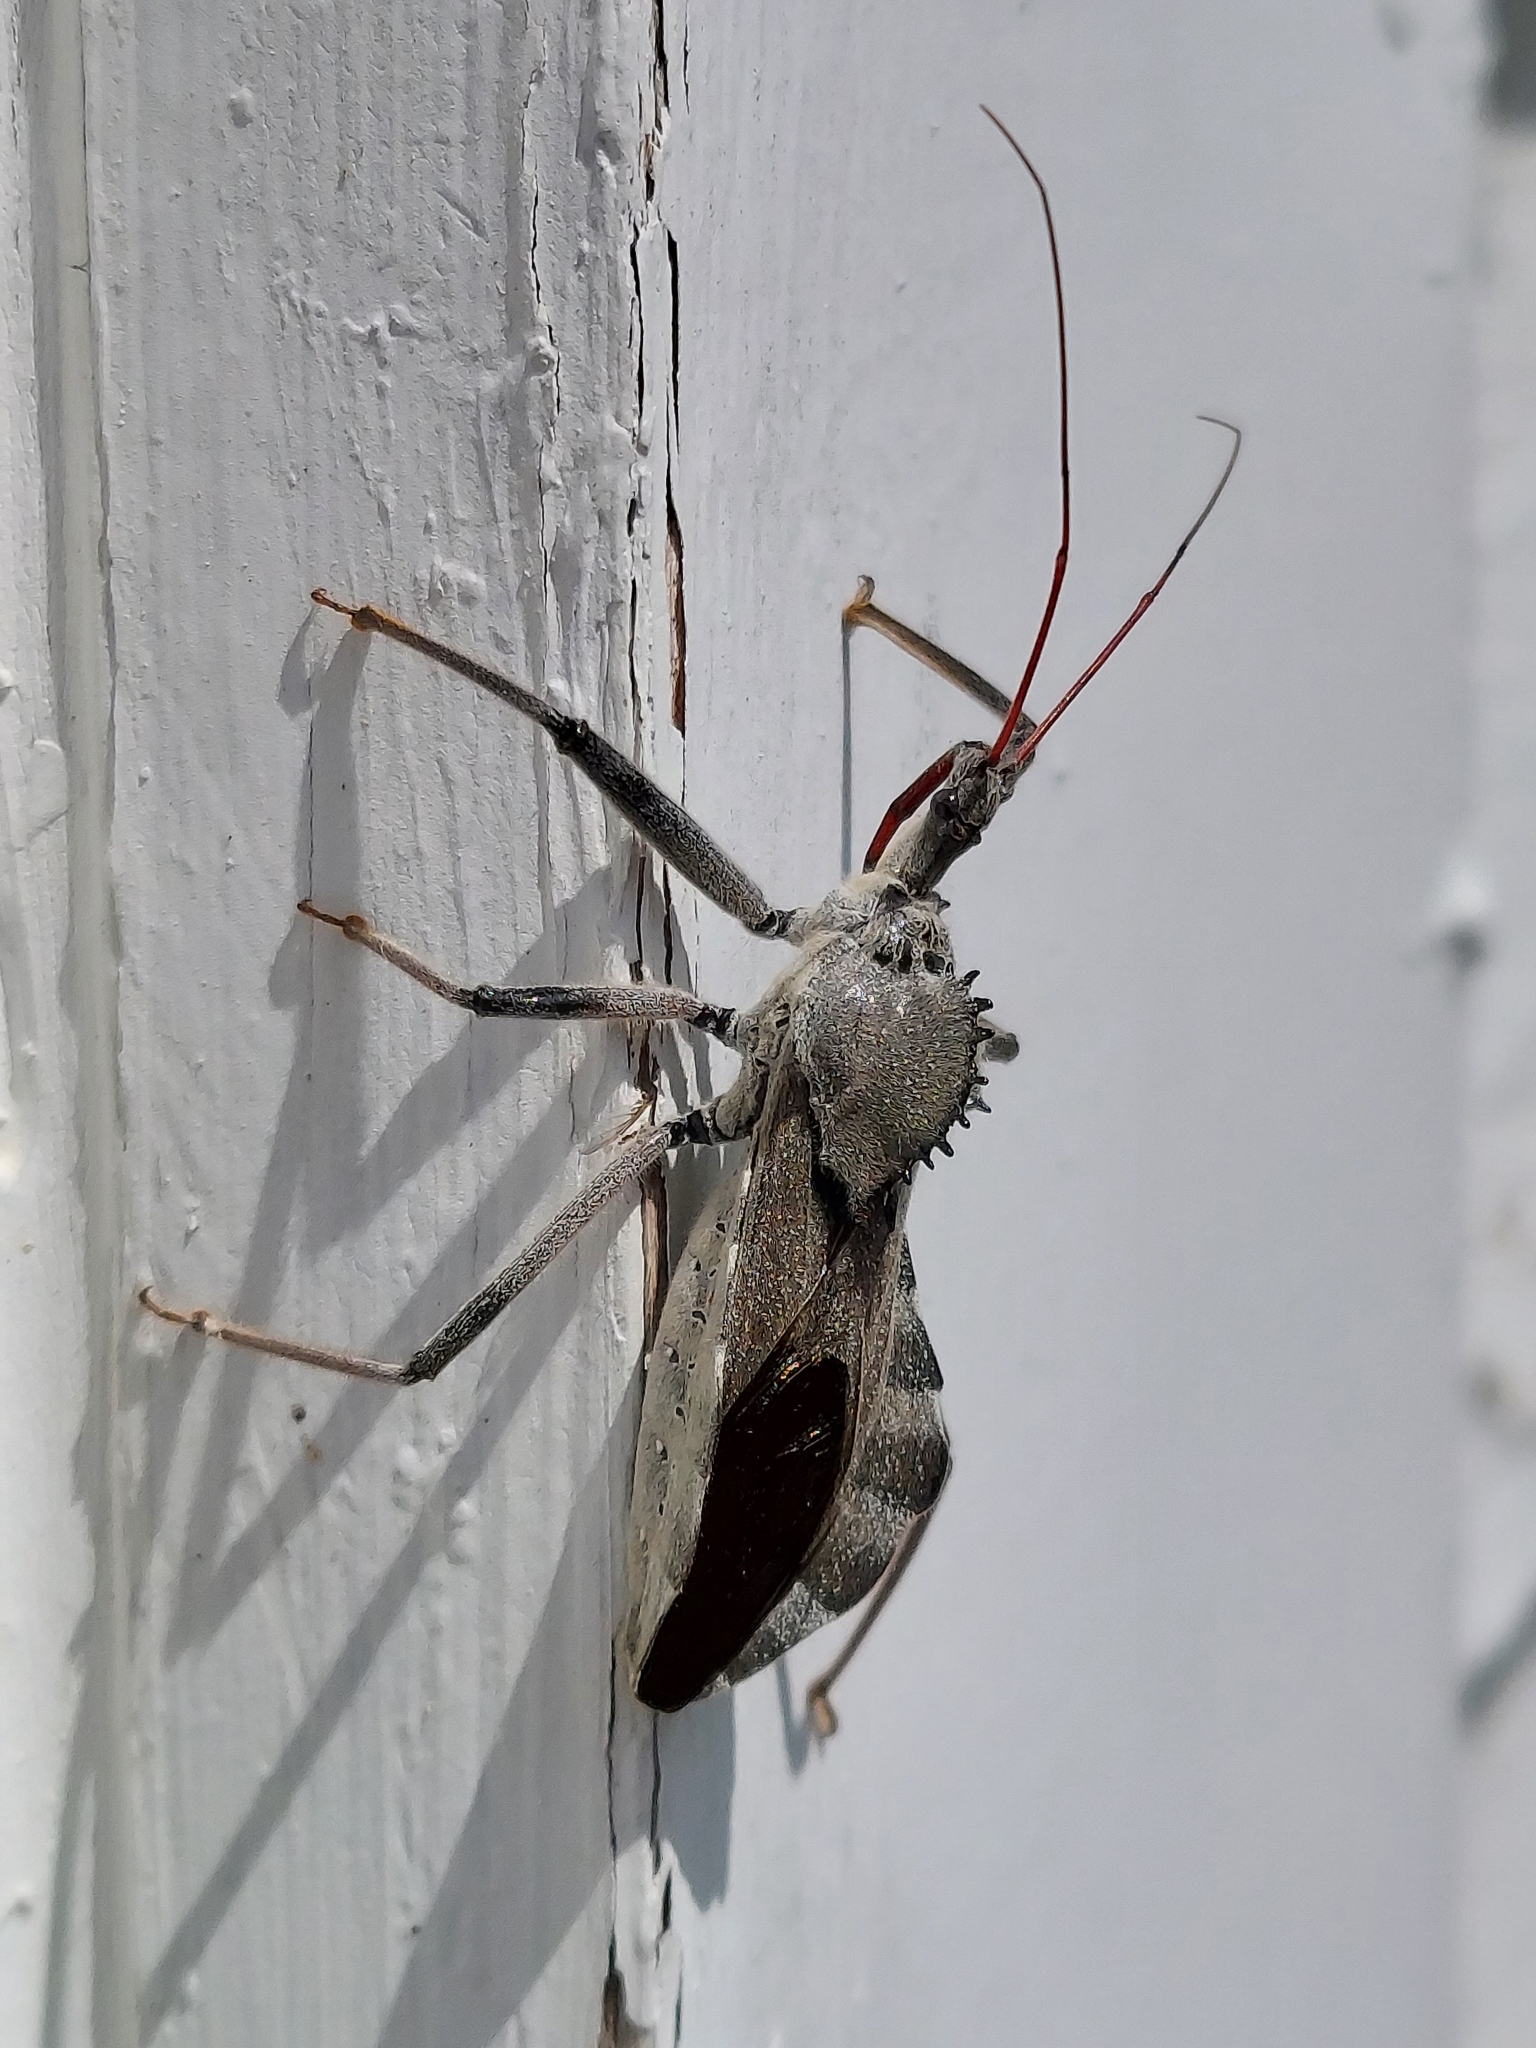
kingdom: Animalia
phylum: Arthropoda
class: Insecta
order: Hemiptera
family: Reduviidae
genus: Arilus
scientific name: Arilus cristatus
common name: North american wheel bug
